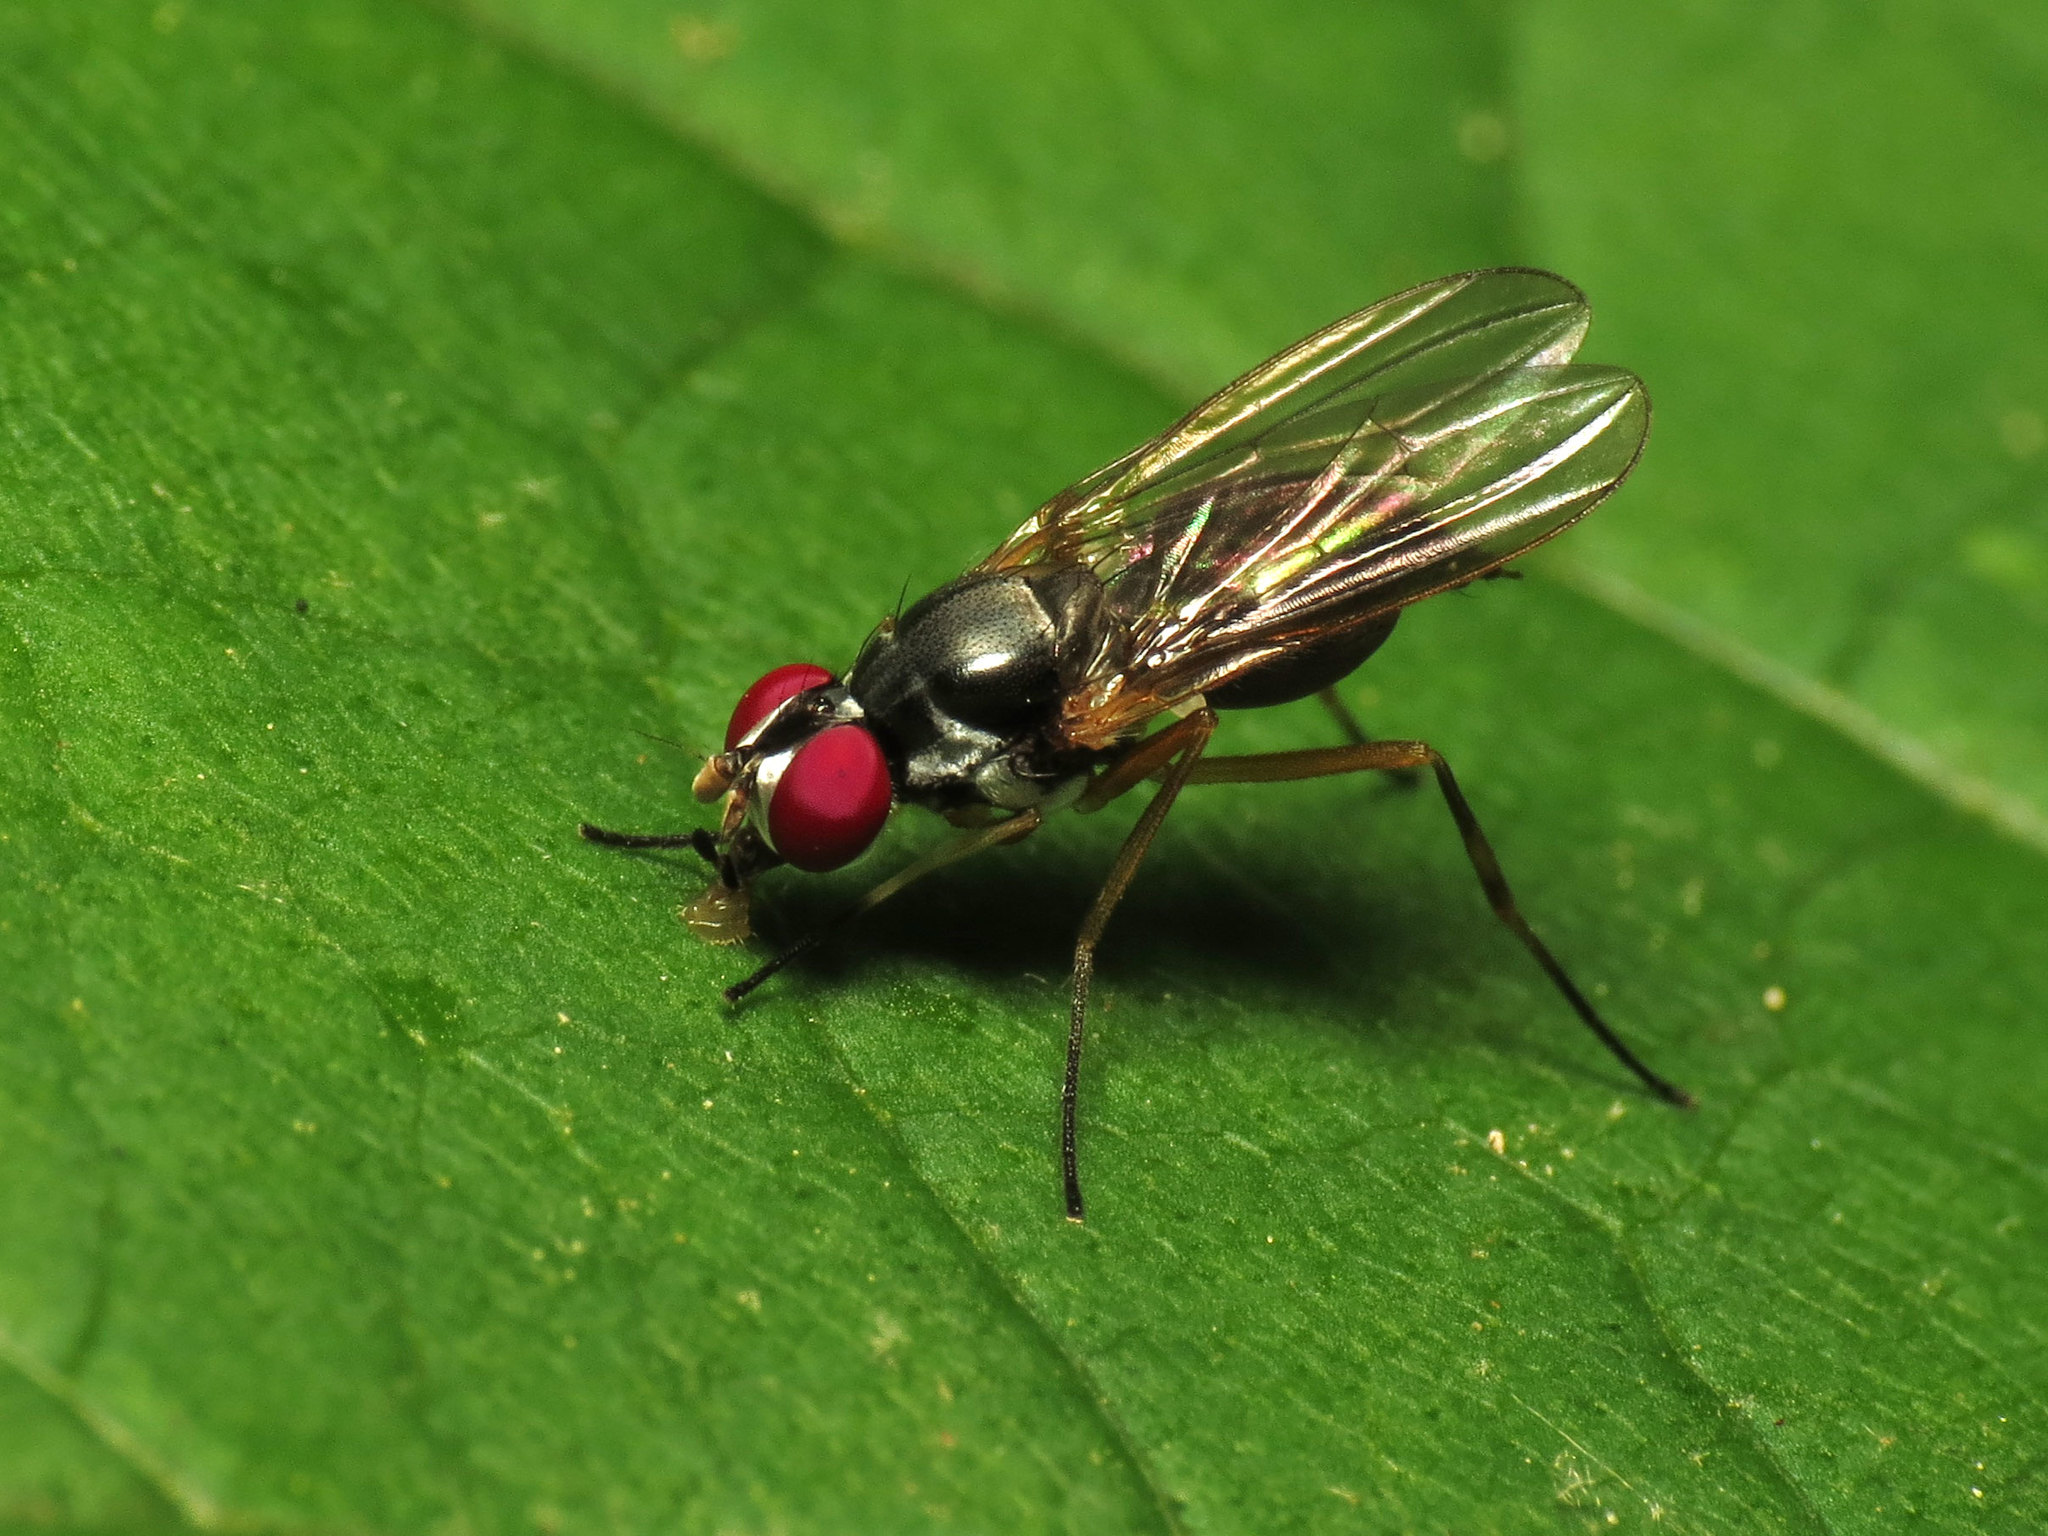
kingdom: Animalia
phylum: Arthropoda
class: Insecta
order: Diptera
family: Tanypezidae
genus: Tanypeza
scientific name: Tanypeza picticornis
